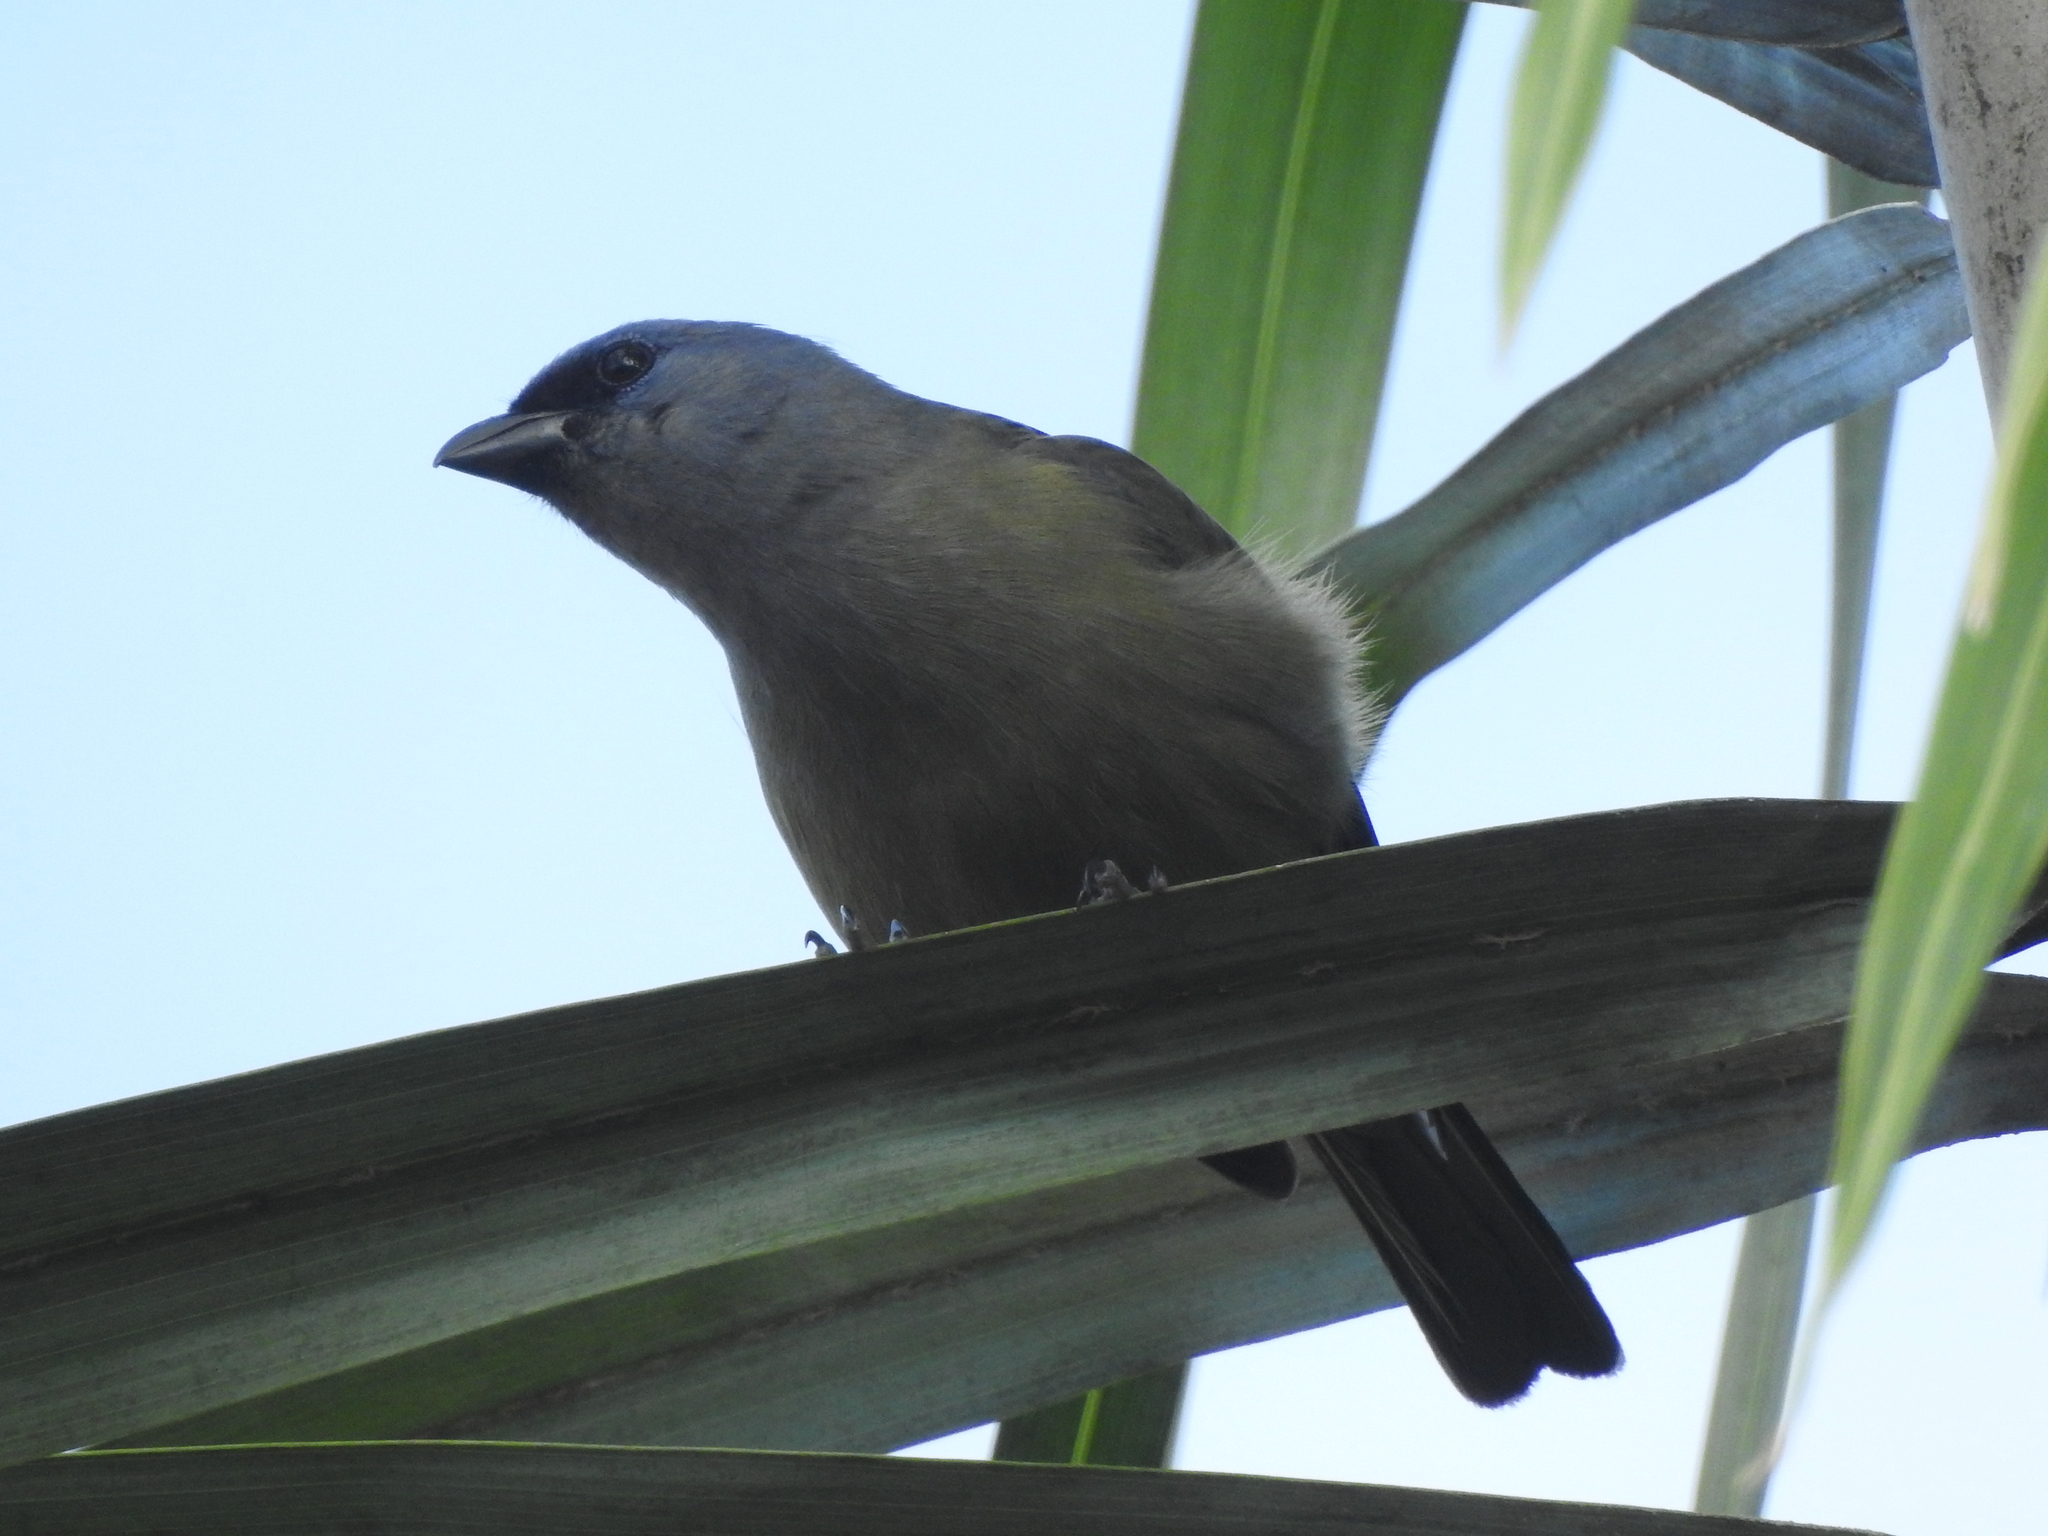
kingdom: Animalia
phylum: Chordata
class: Aves
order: Passeriformes
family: Thraupidae
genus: Thraupis
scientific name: Thraupis abbas
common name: Yellow-winged tanager
